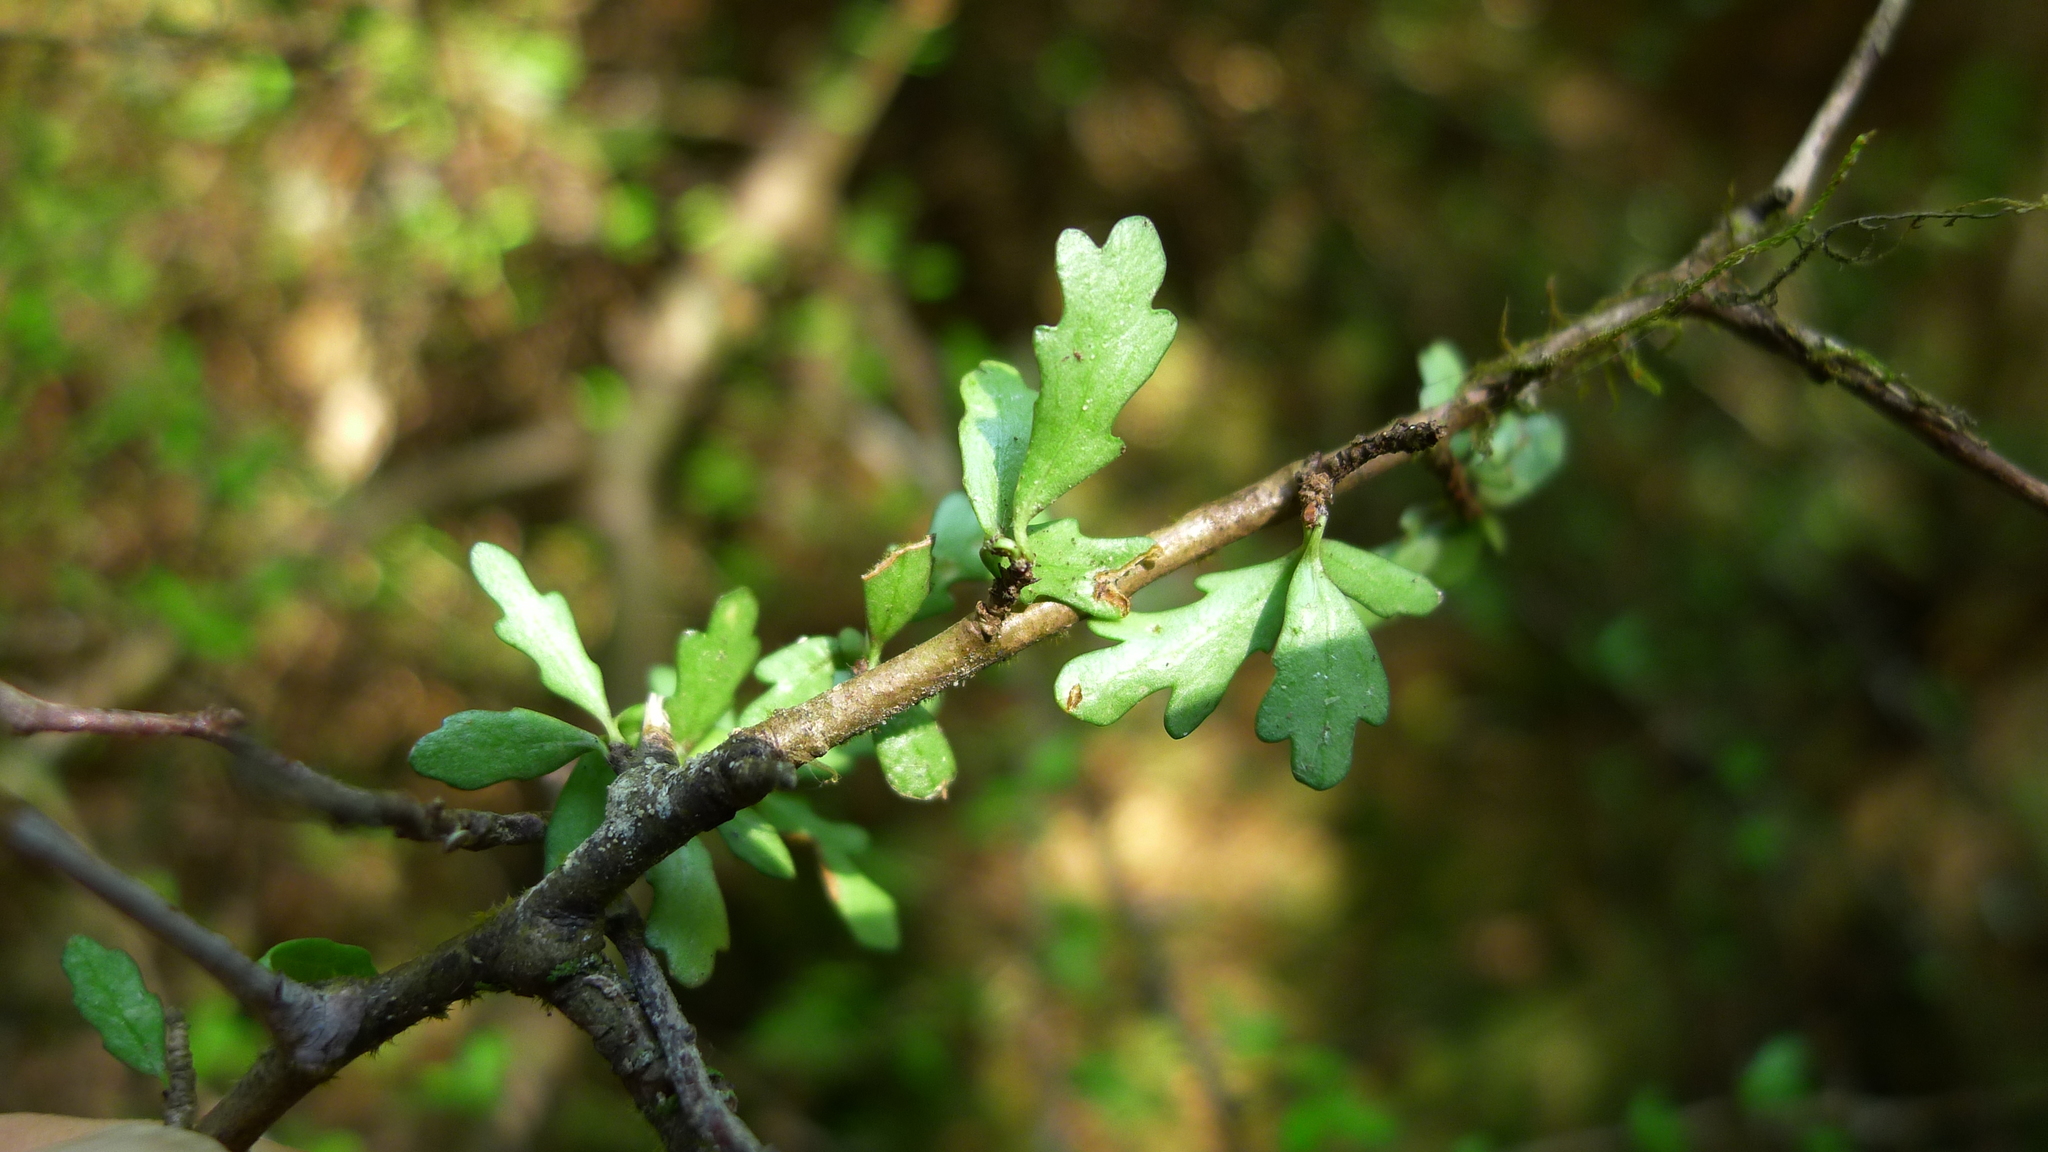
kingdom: Plantae
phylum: Tracheophyta
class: Magnoliopsida
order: Apiales
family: Pittosporaceae
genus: Pittosporum
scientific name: Pittosporum divaricatum
